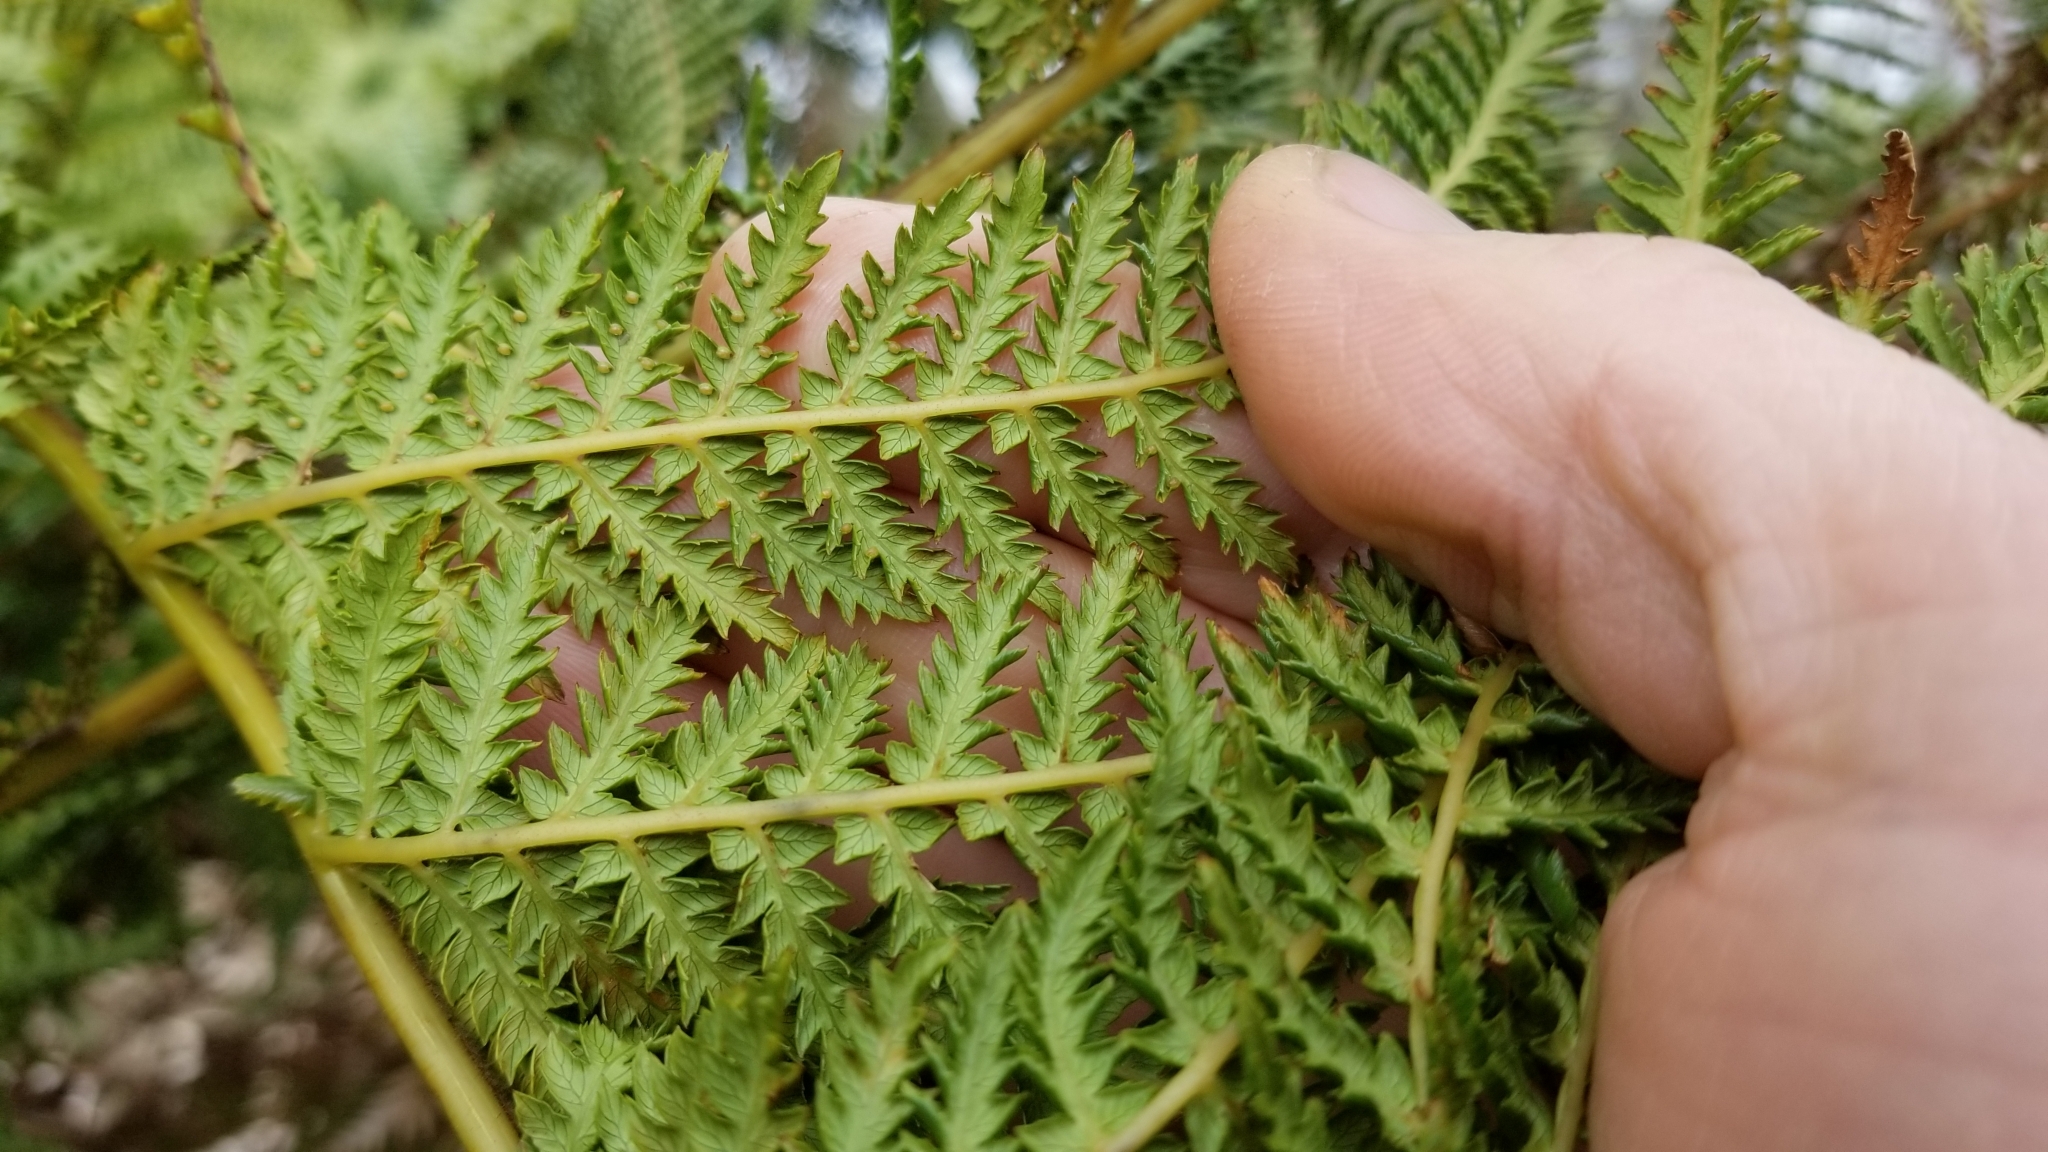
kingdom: Plantae
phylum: Tracheophyta
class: Polypodiopsida
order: Cyatheales
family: Dicksoniaceae
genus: Dicksonia
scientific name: Dicksonia fibrosa
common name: Golden tree fern
